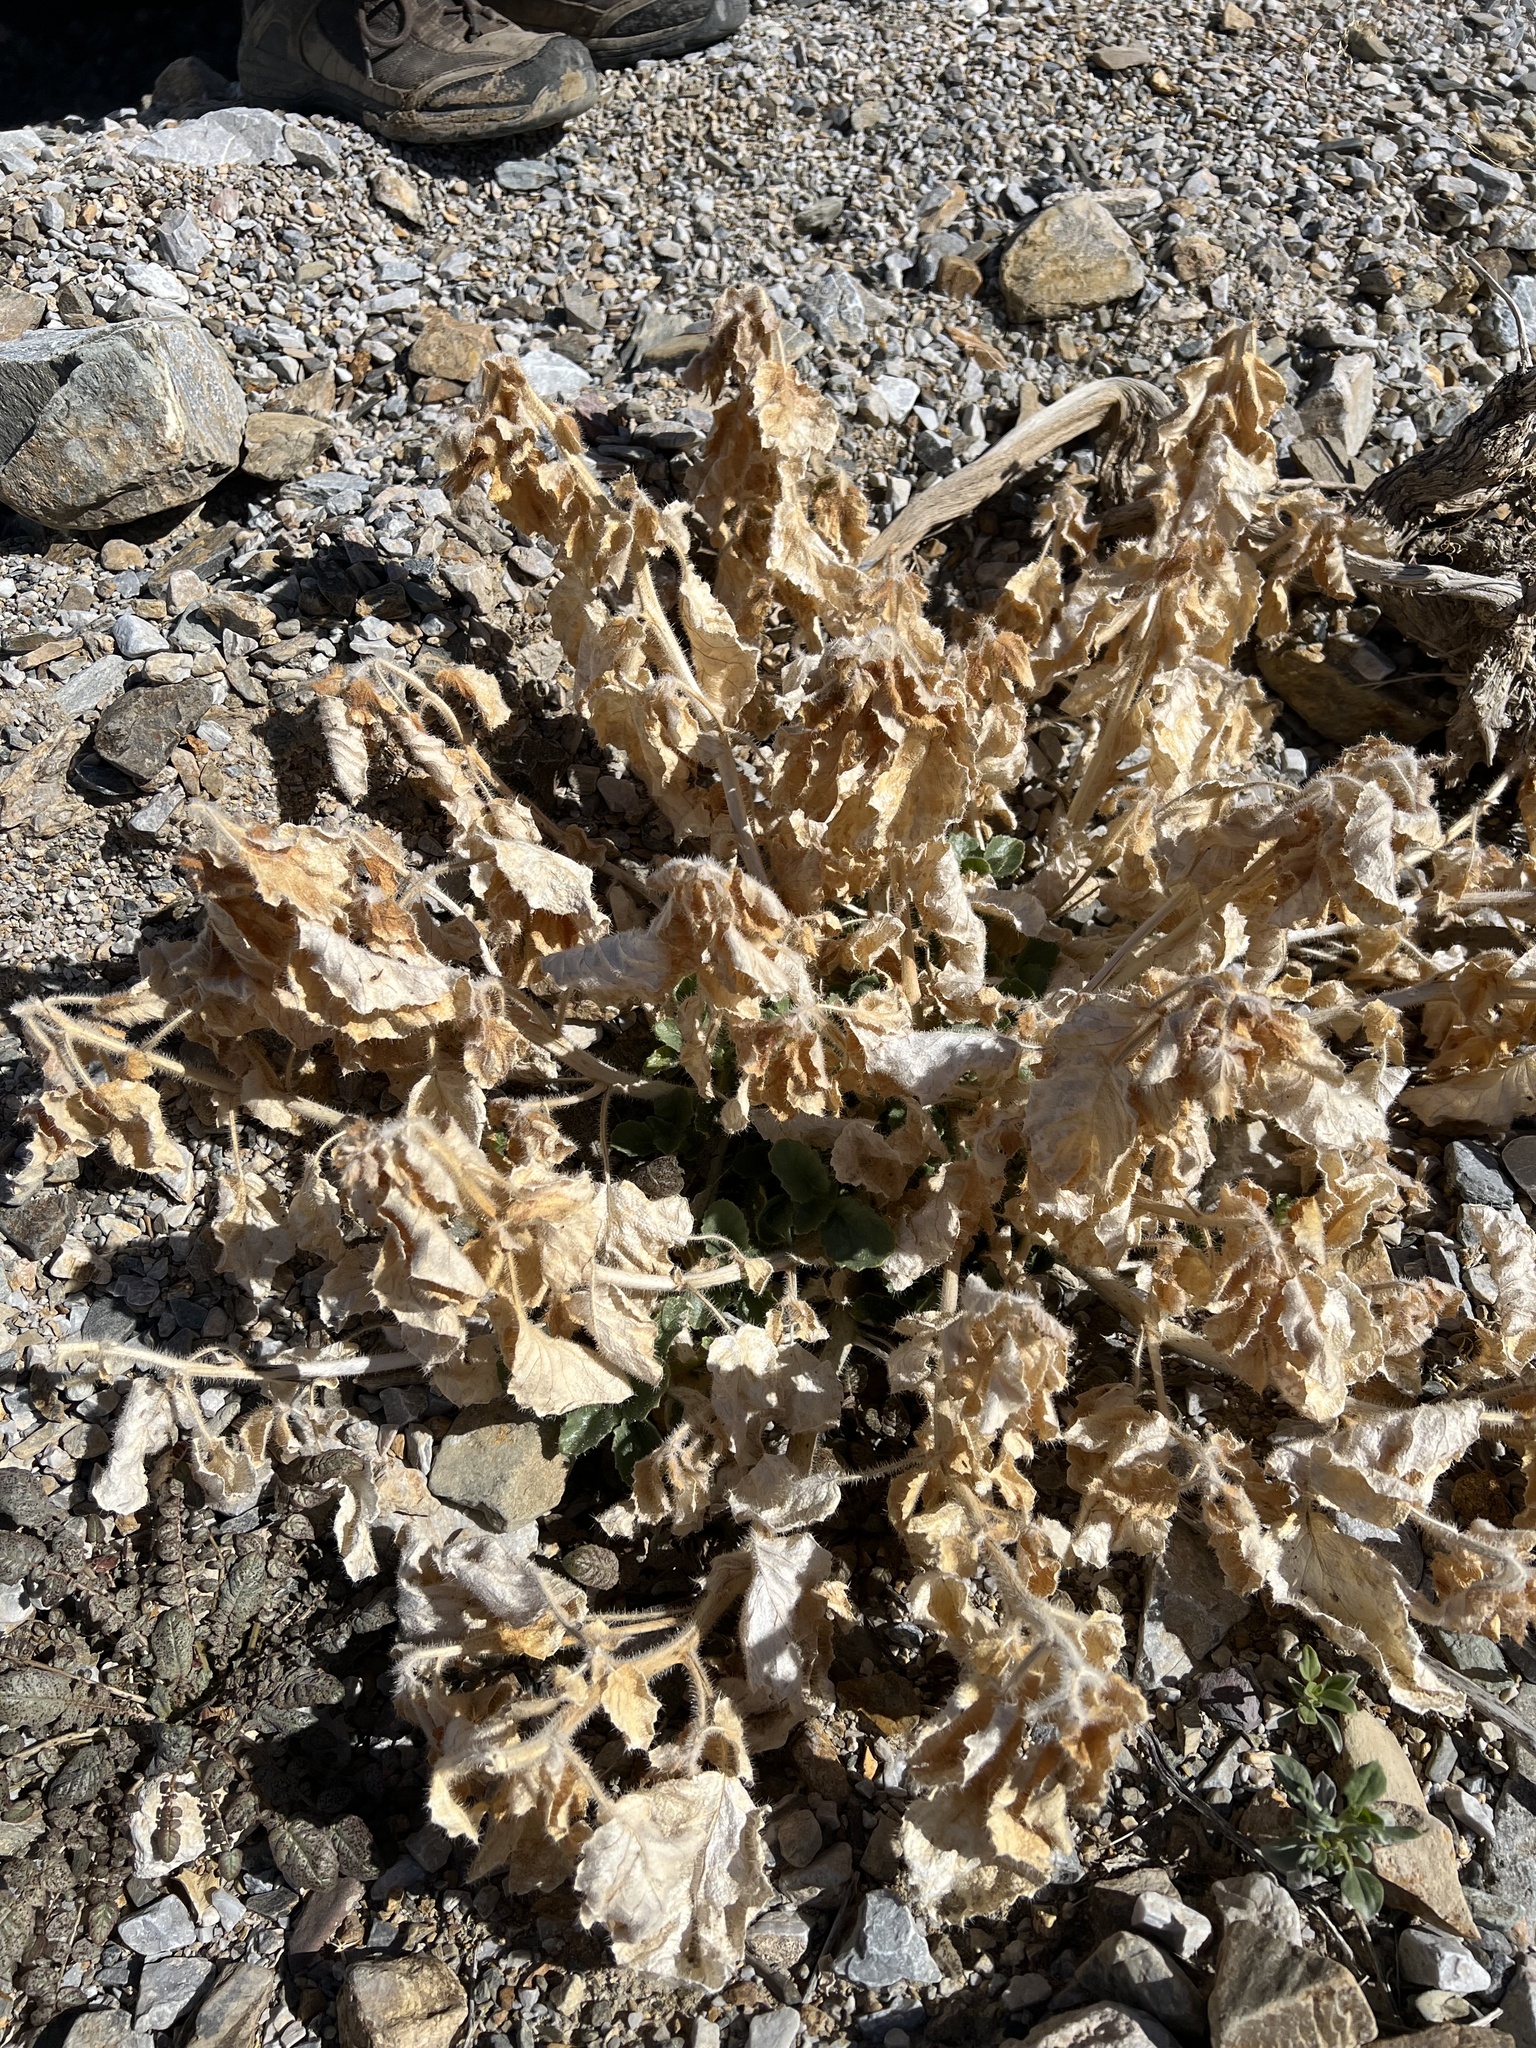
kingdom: Plantae
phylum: Tracheophyta
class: Magnoliopsida
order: Cornales
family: Loasaceae
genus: Eucnide
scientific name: Eucnide urens
